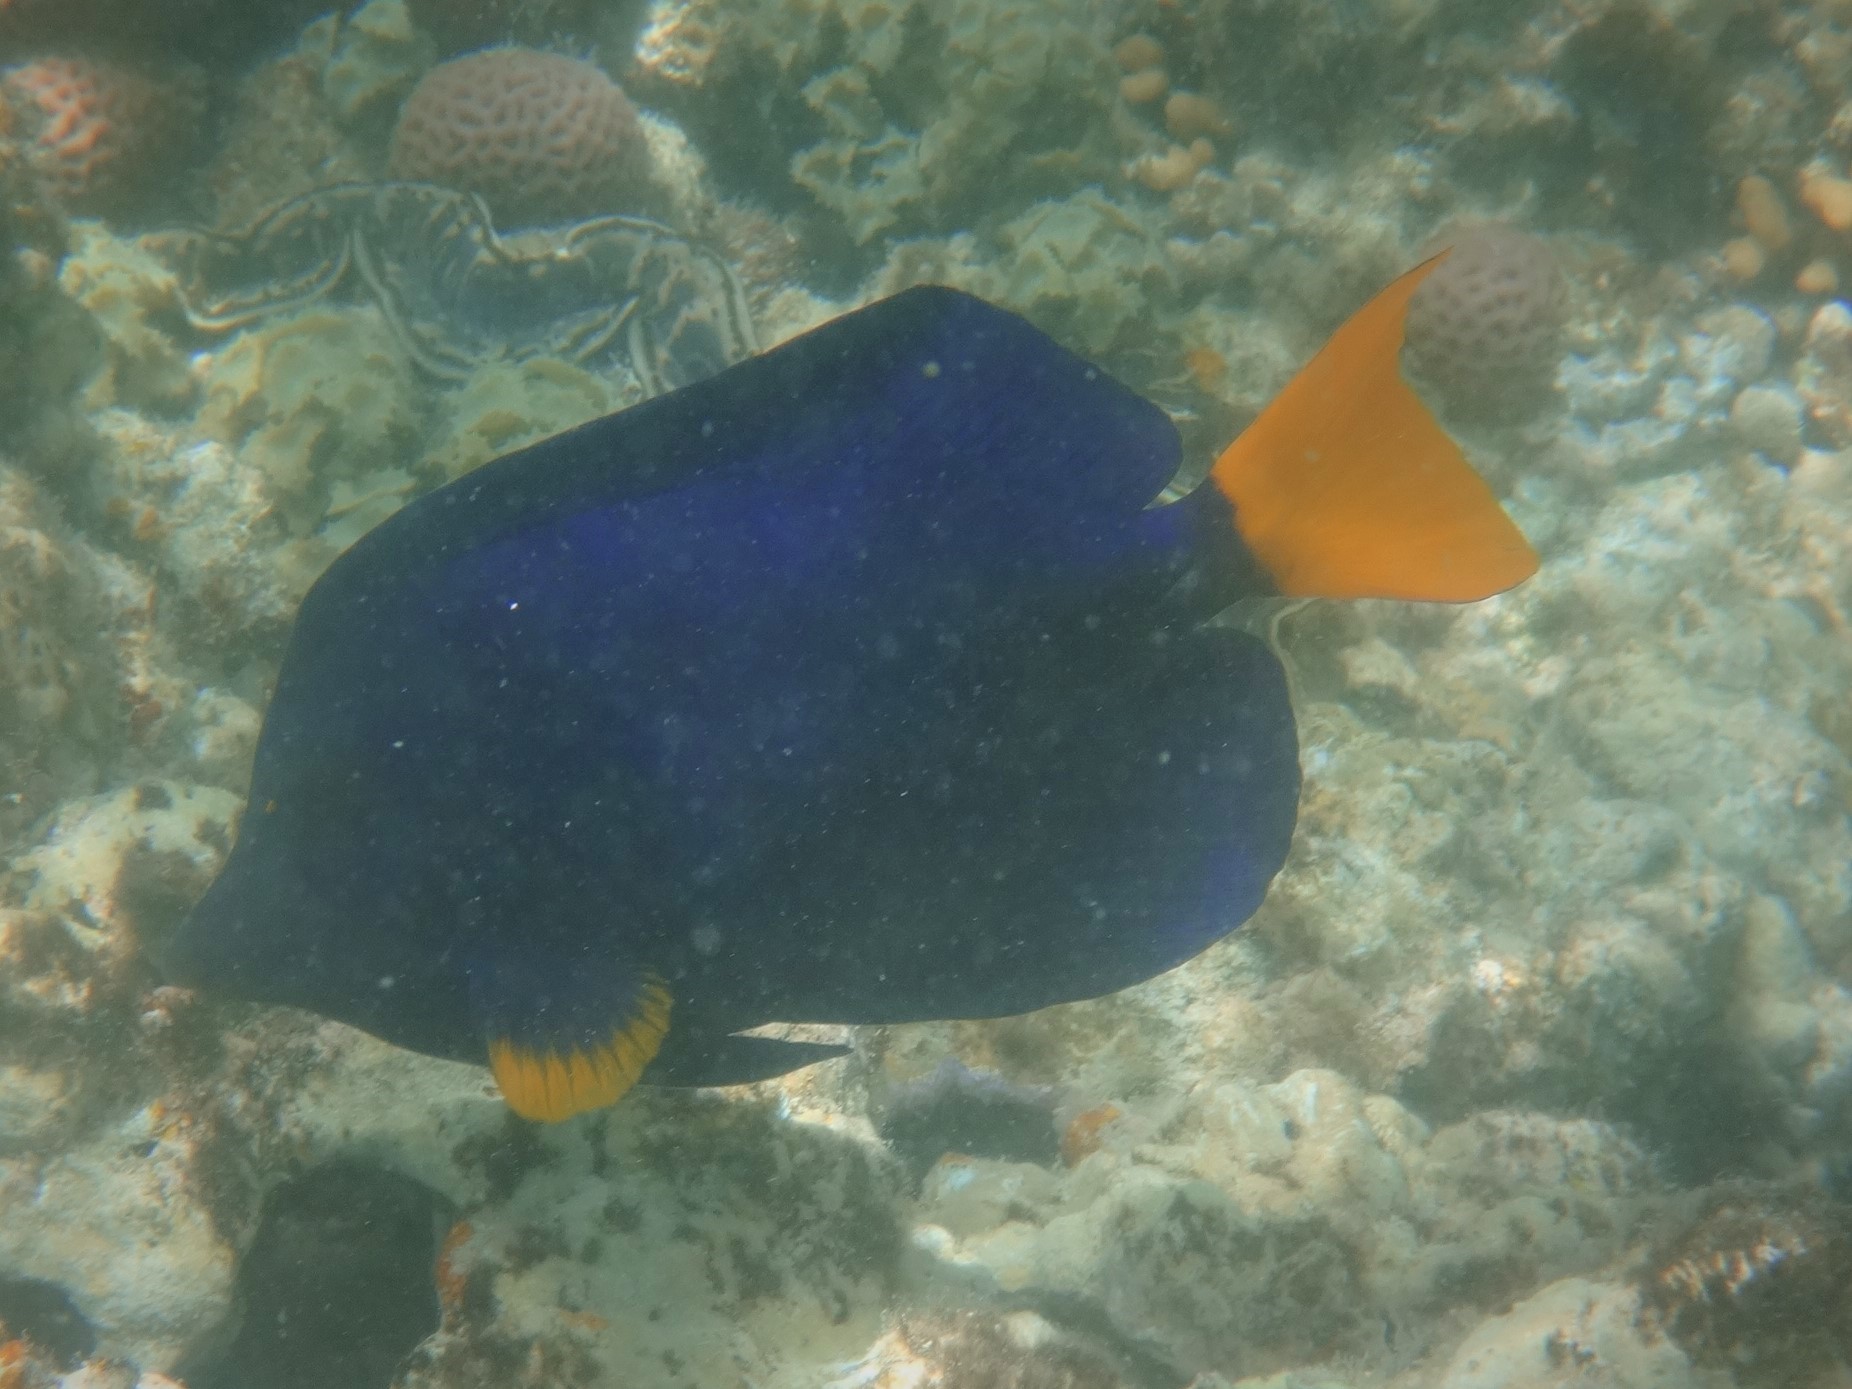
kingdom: Animalia
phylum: Chordata
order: Perciformes
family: Acanthuridae
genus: Zebrasoma
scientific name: Zebrasoma xanthurum
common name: Purple tang
